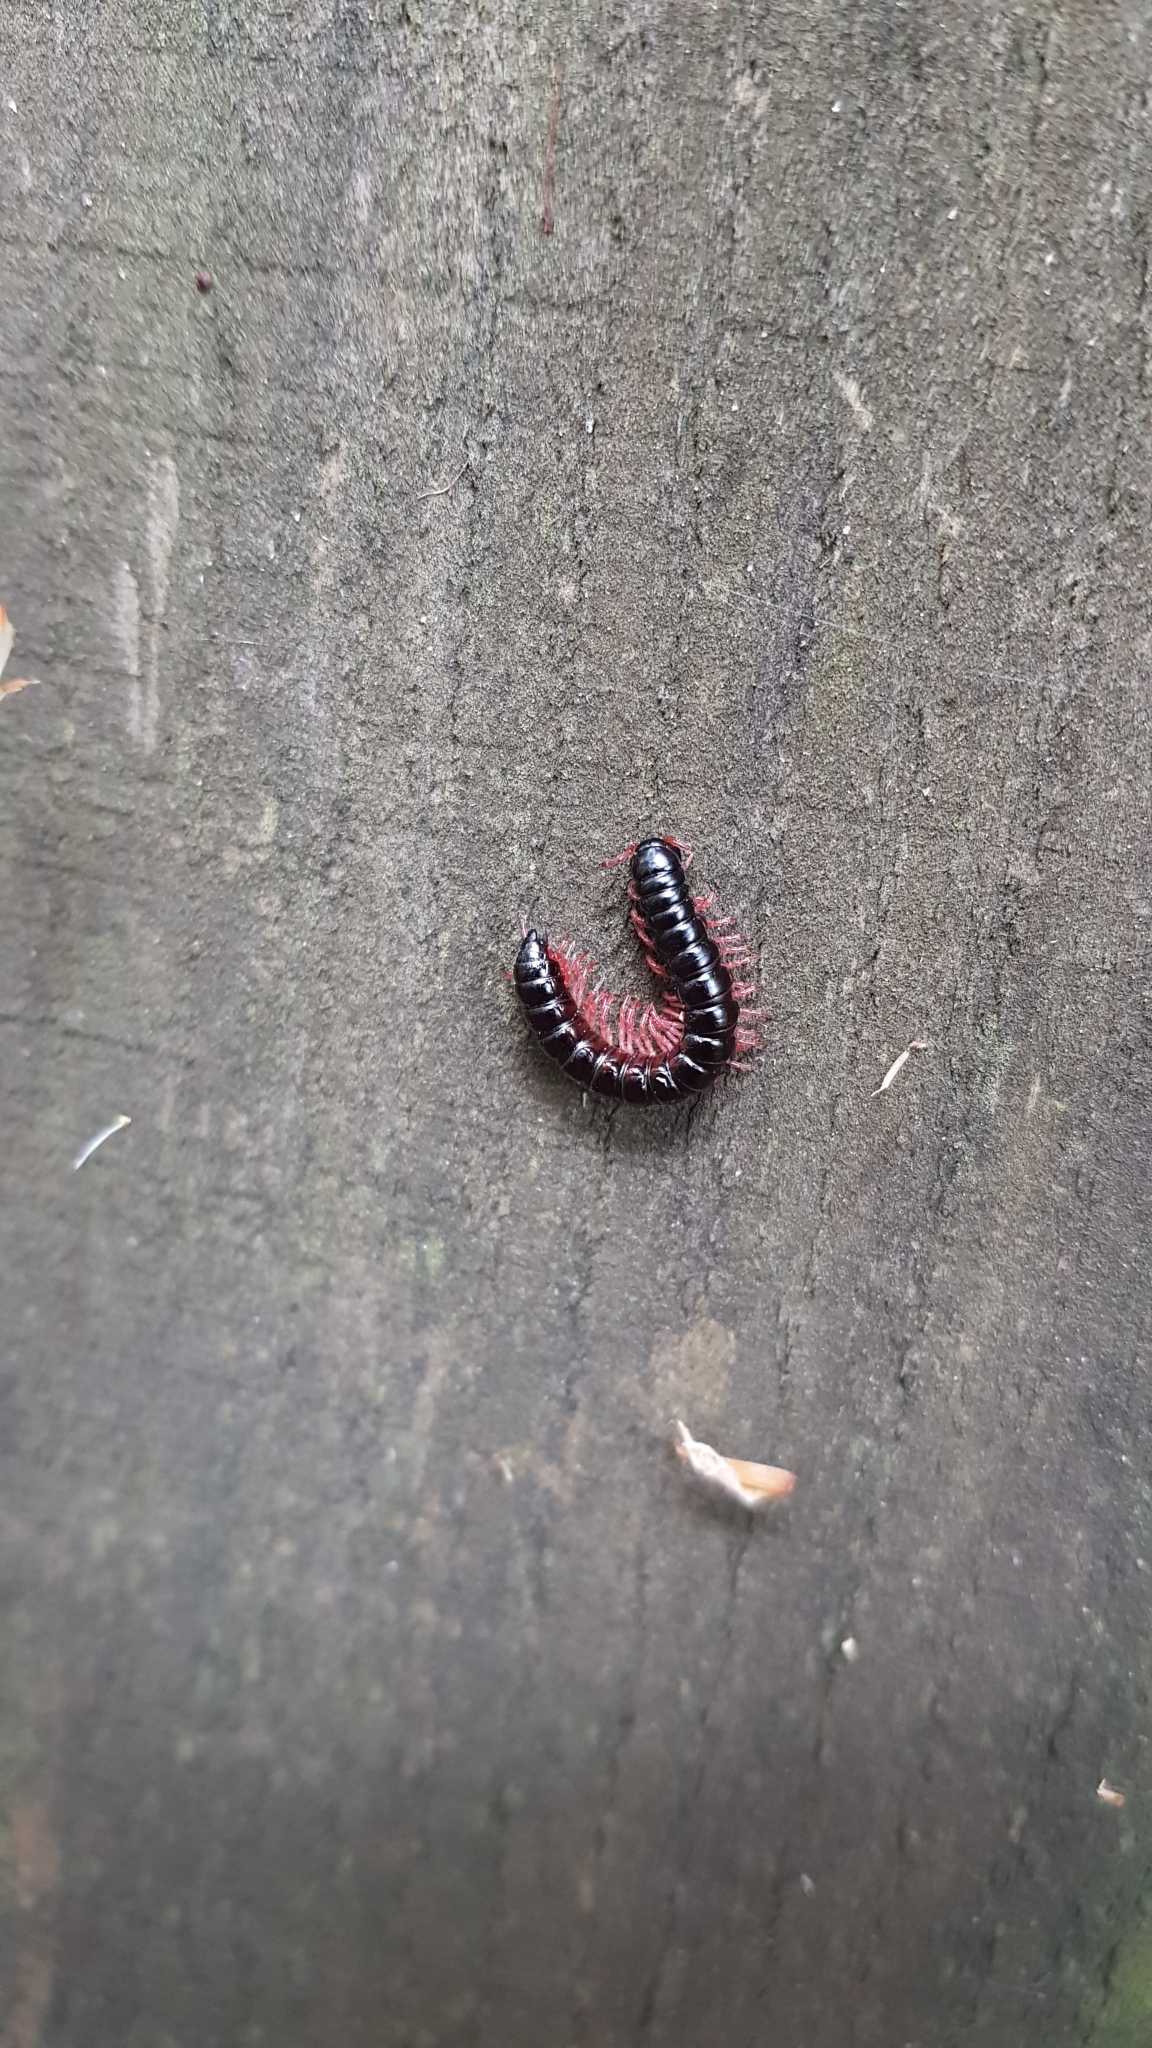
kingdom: Animalia
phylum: Arthropoda
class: Diplopoda
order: Polydesmida
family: Paradoxosomatidae
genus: Heterocladosoma
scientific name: Heterocladosoma
